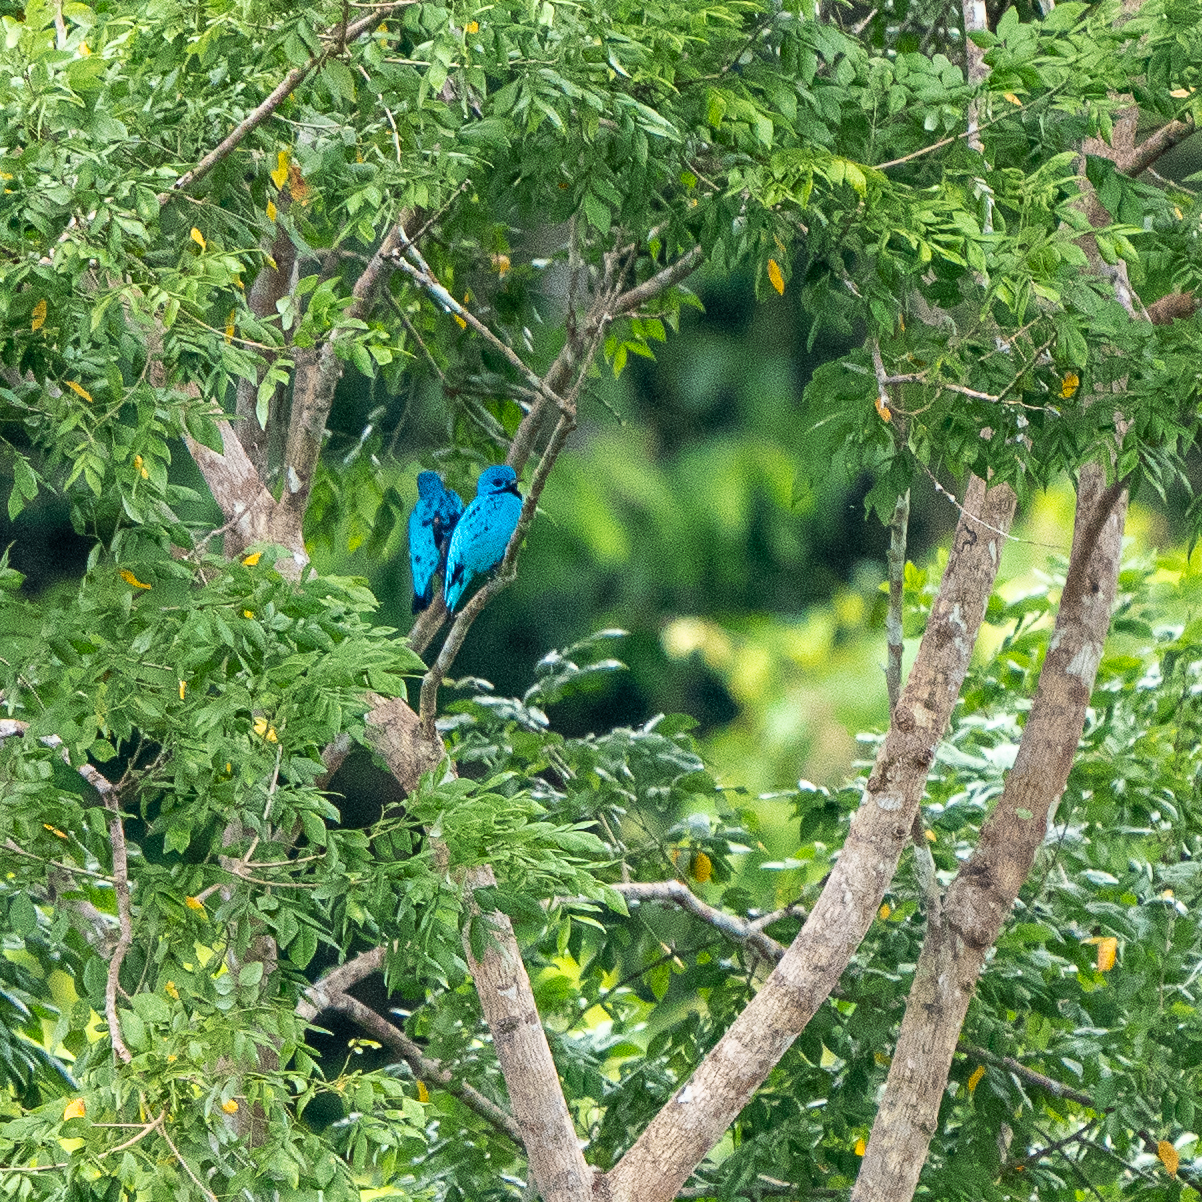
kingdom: Animalia
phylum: Chordata
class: Aves
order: Passeriformes
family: Cotingidae
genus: Cotinga
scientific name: Cotinga nattererii
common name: Blue cotinga
